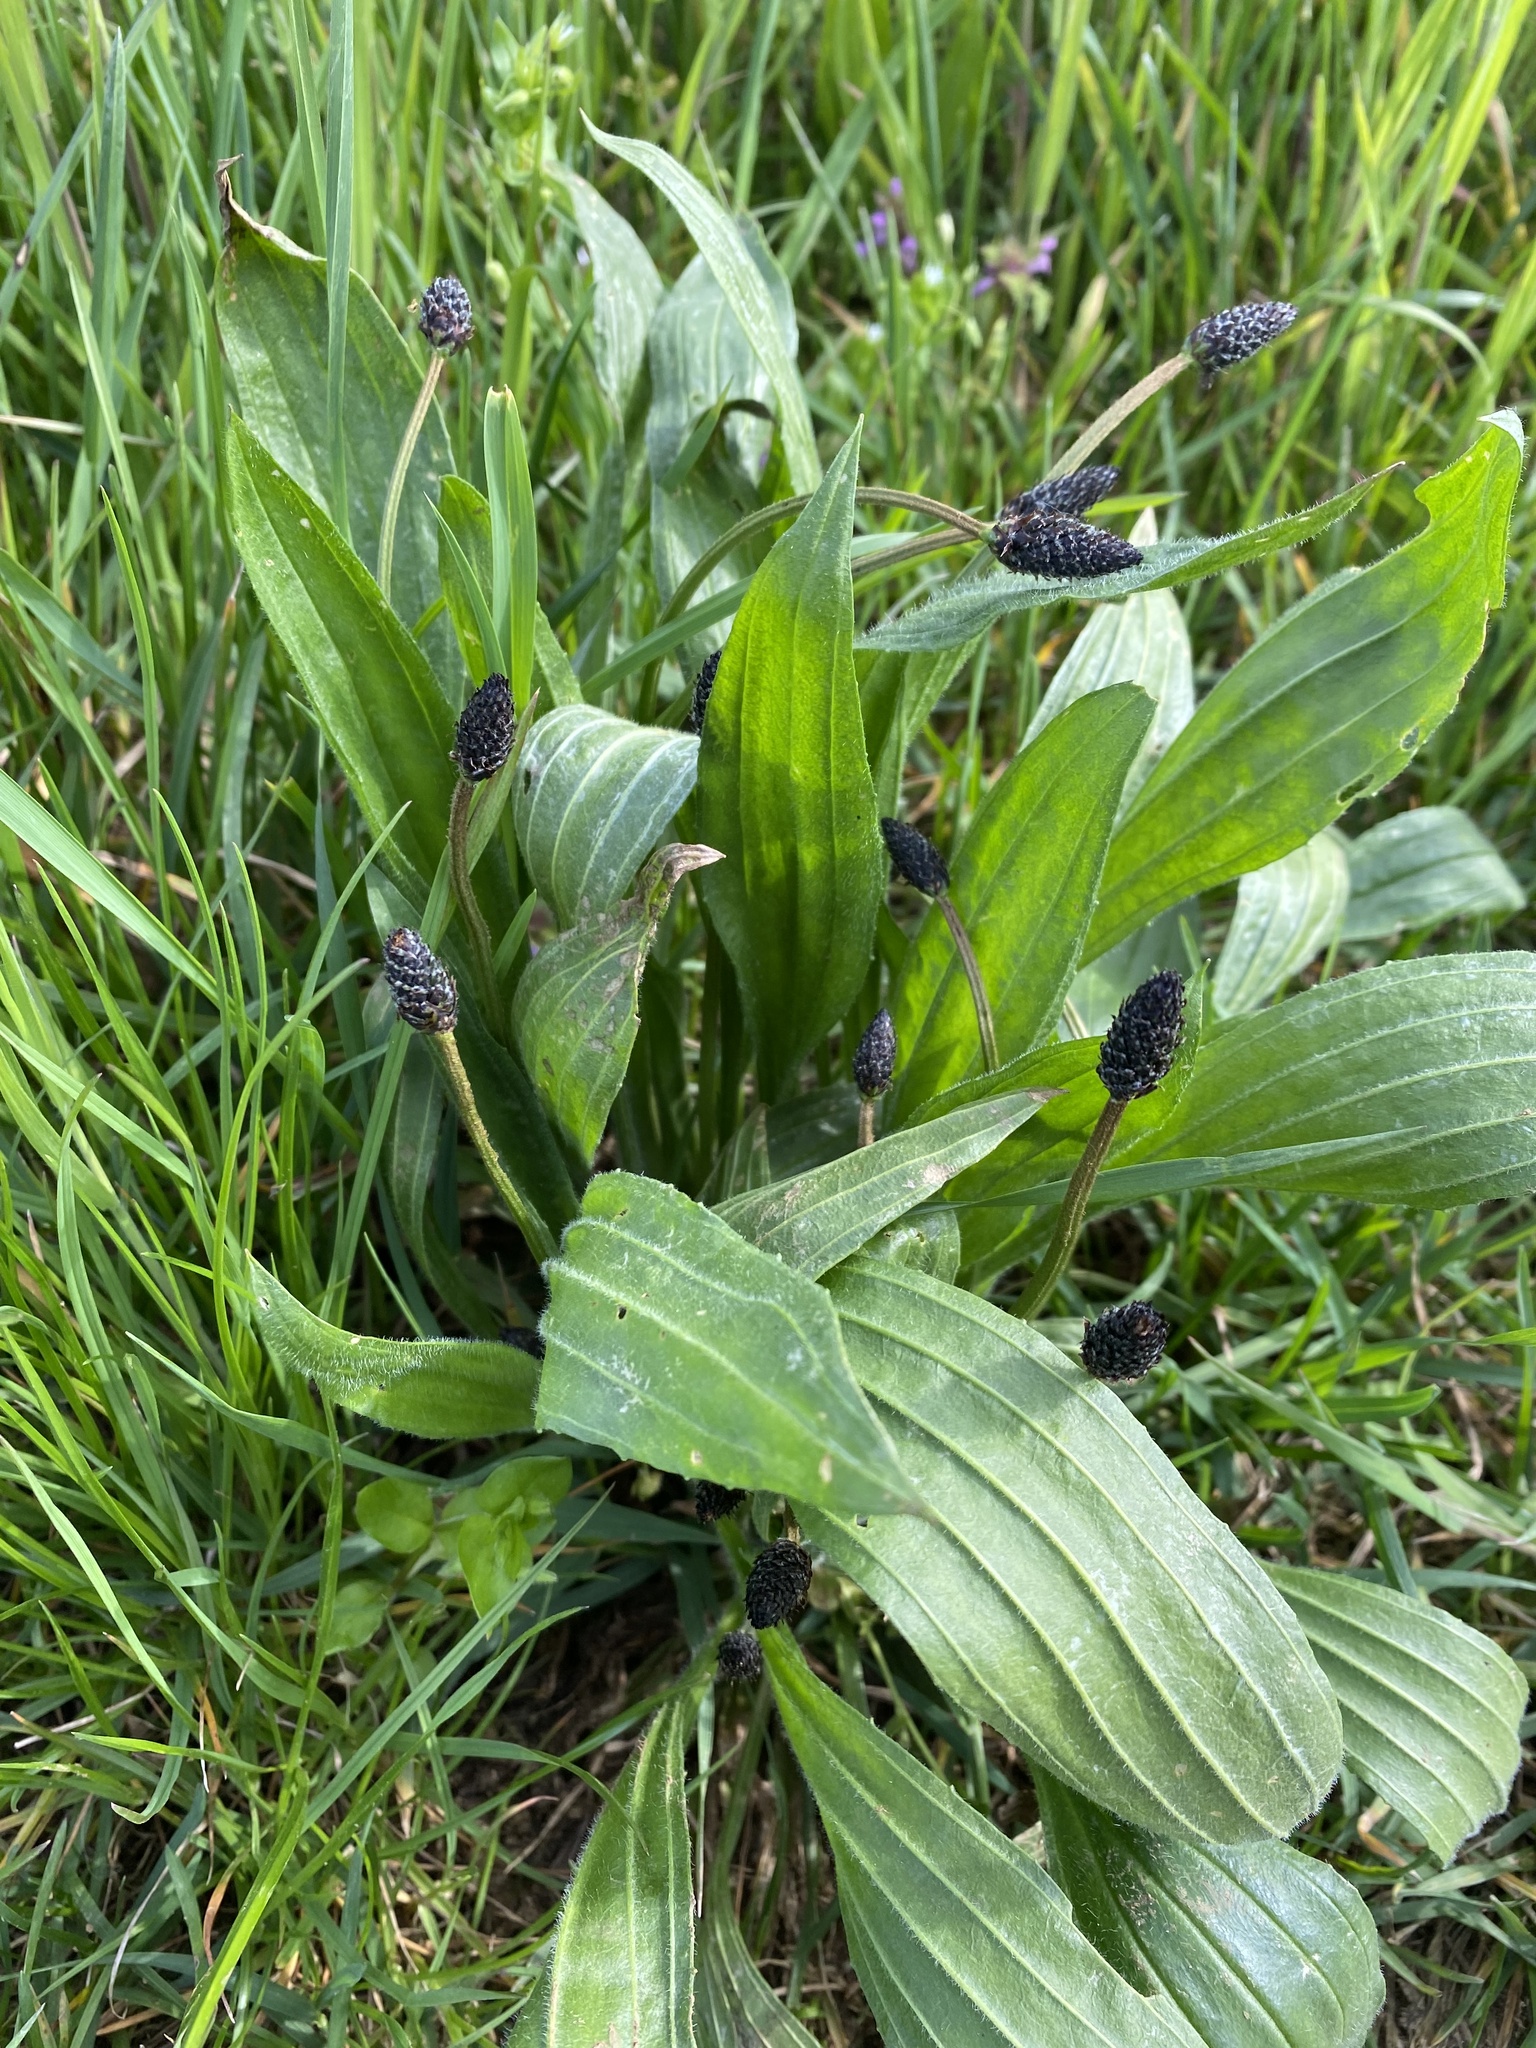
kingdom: Plantae
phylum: Tracheophyta
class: Magnoliopsida
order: Lamiales
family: Plantaginaceae
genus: Plantago
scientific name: Plantago lanceolata
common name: Ribwort plantain
